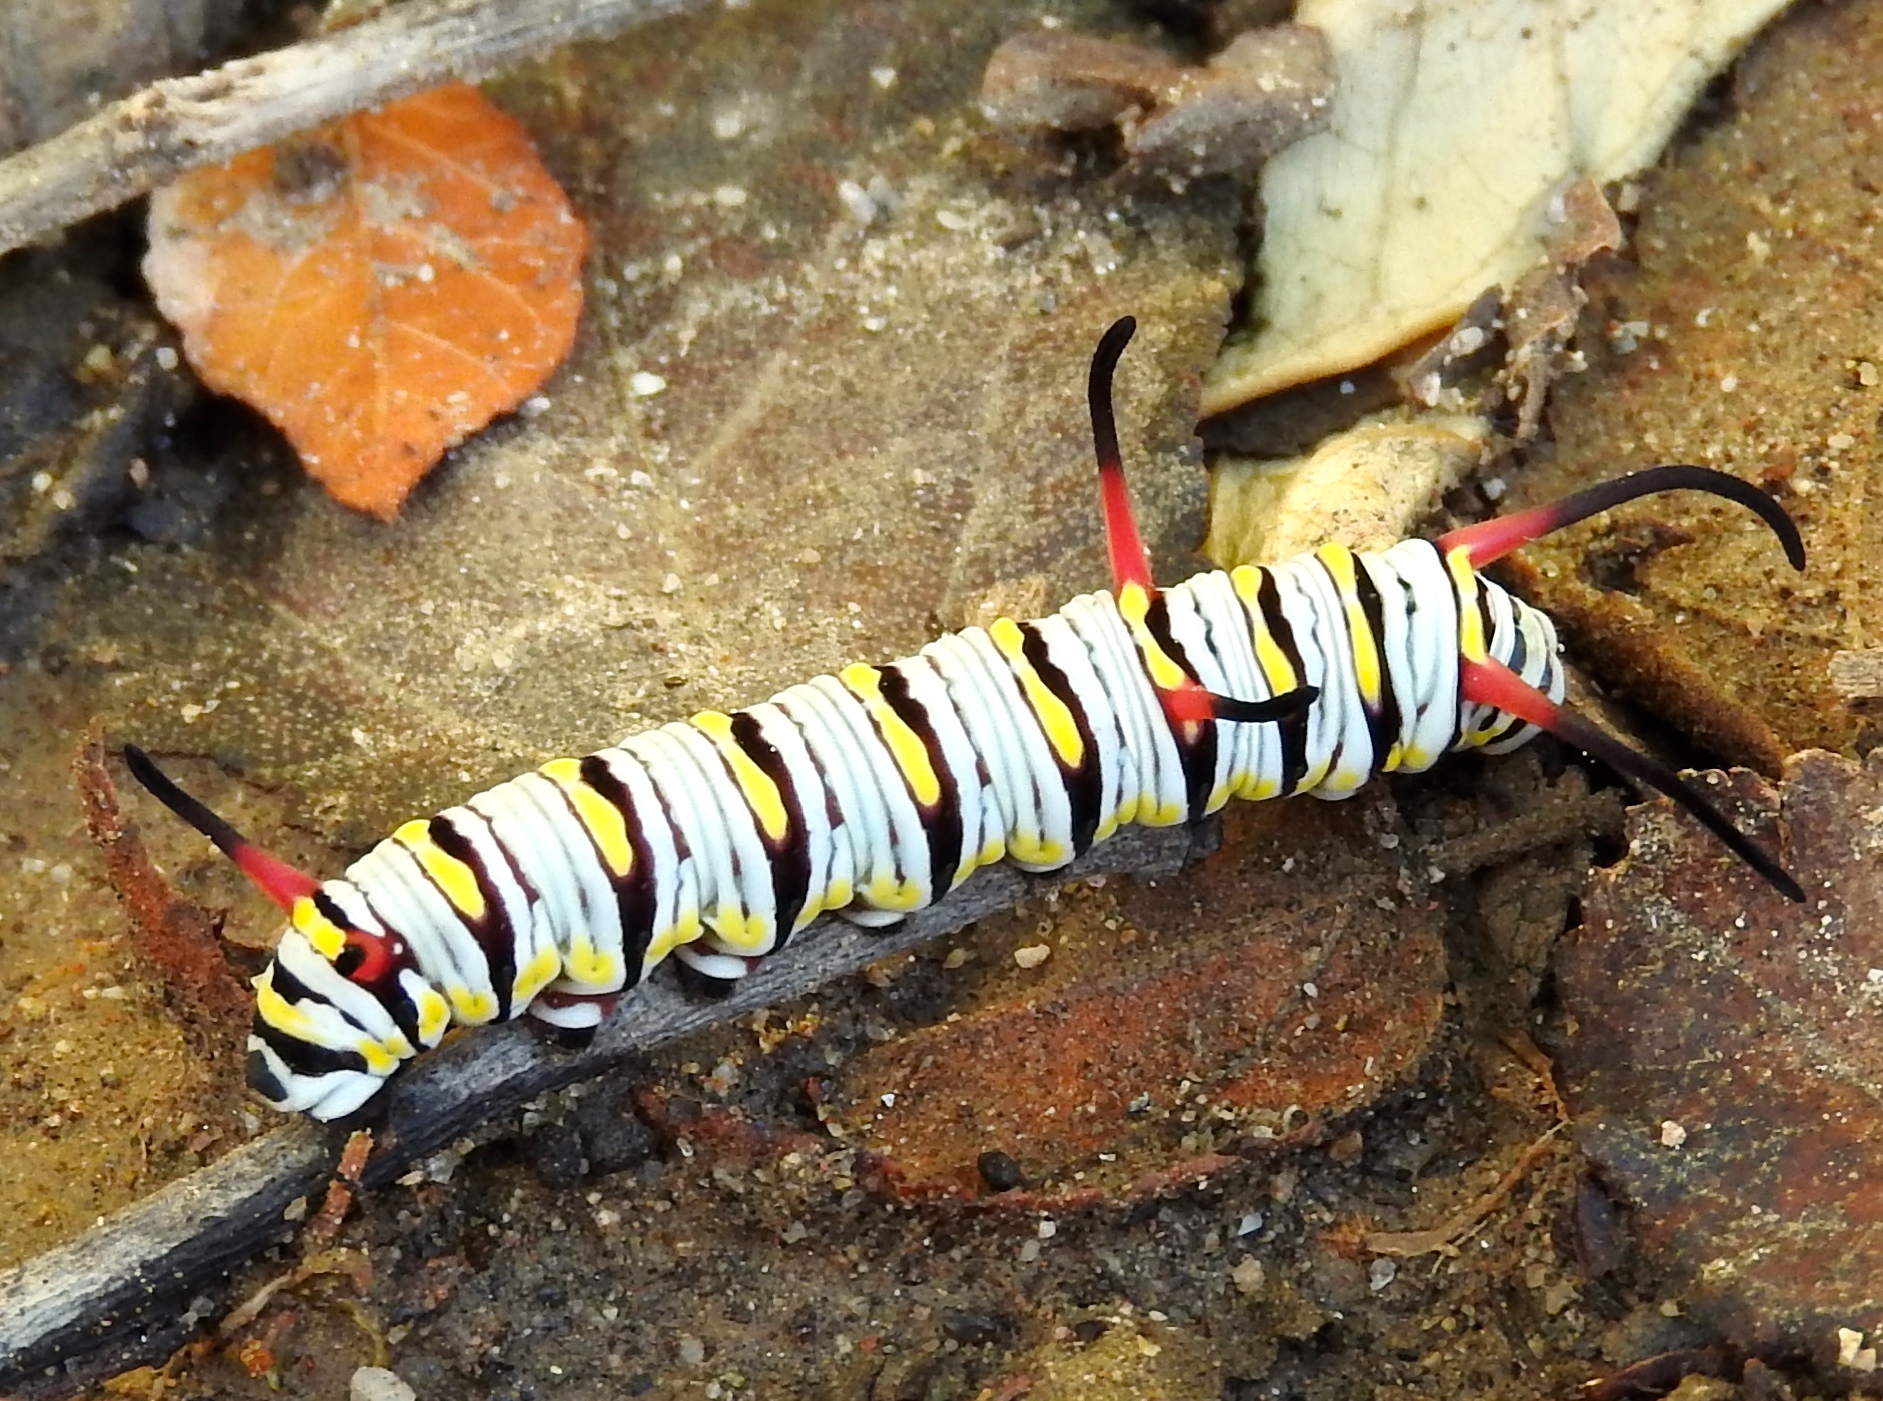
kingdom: Animalia
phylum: Arthropoda
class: Insecta
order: Lepidoptera
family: Nymphalidae
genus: Danaus
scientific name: Danaus gilippus
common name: Queen
